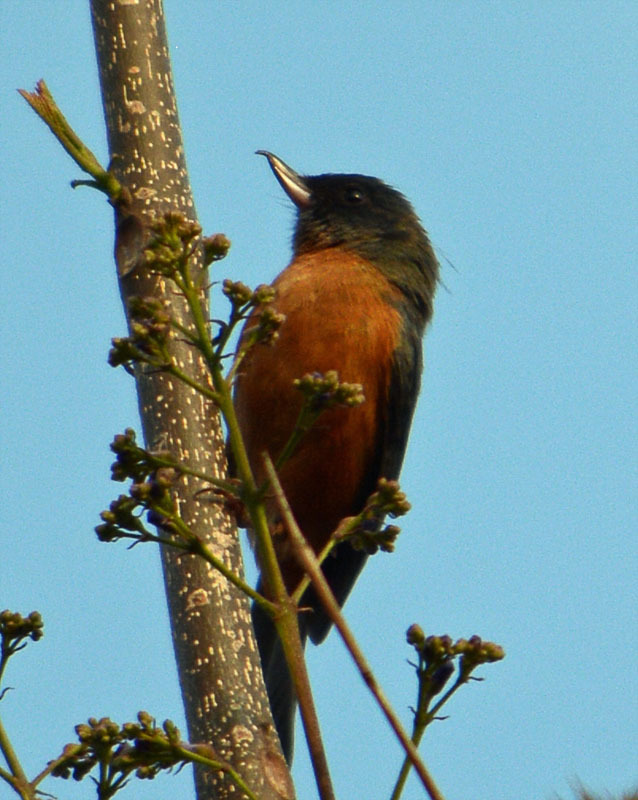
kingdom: Animalia
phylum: Chordata
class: Aves
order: Passeriformes
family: Thraupidae
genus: Diglossa
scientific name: Diglossa baritula
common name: Cinnamon-bellied flowerpiercer
